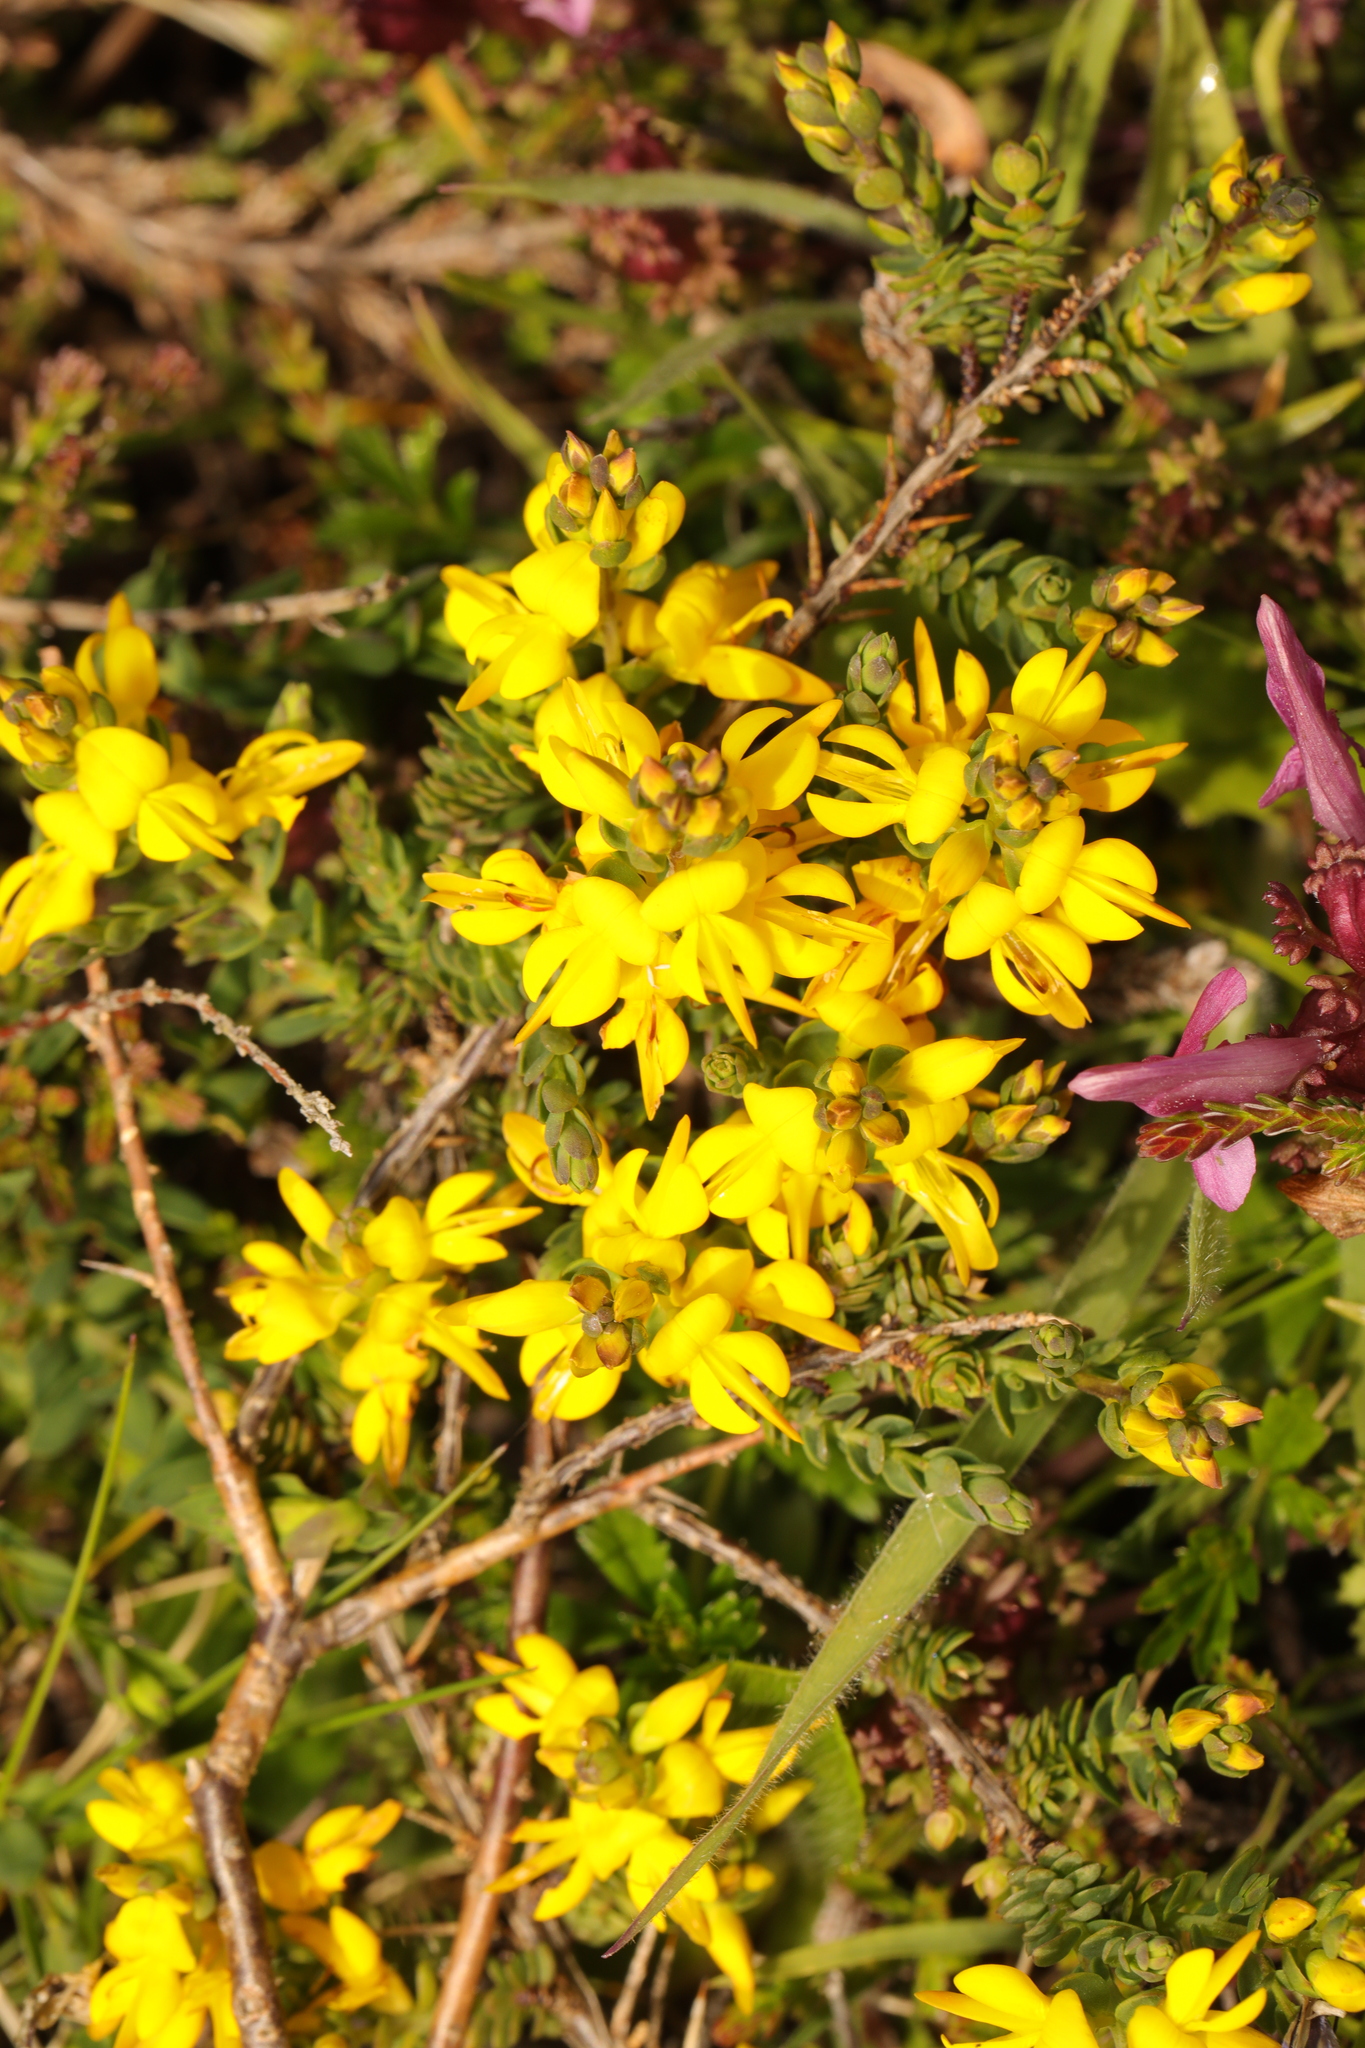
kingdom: Plantae
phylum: Tracheophyta
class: Magnoliopsida
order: Fabales
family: Fabaceae
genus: Genista
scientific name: Genista anglica
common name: Petty whin
